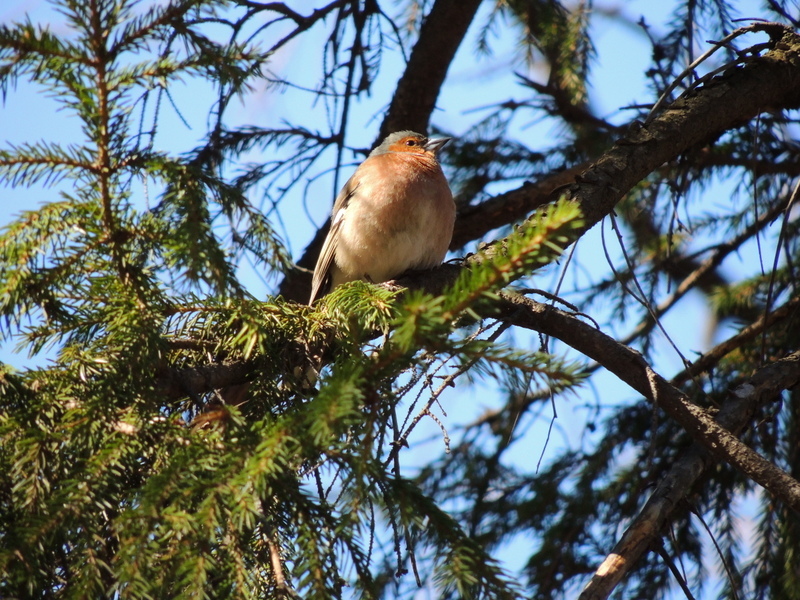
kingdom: Animalia
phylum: Chordata
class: Aves
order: Passeriformes
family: Fringillidae
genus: Fringilla
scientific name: Fringilla coelebs
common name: Common chaffinch
